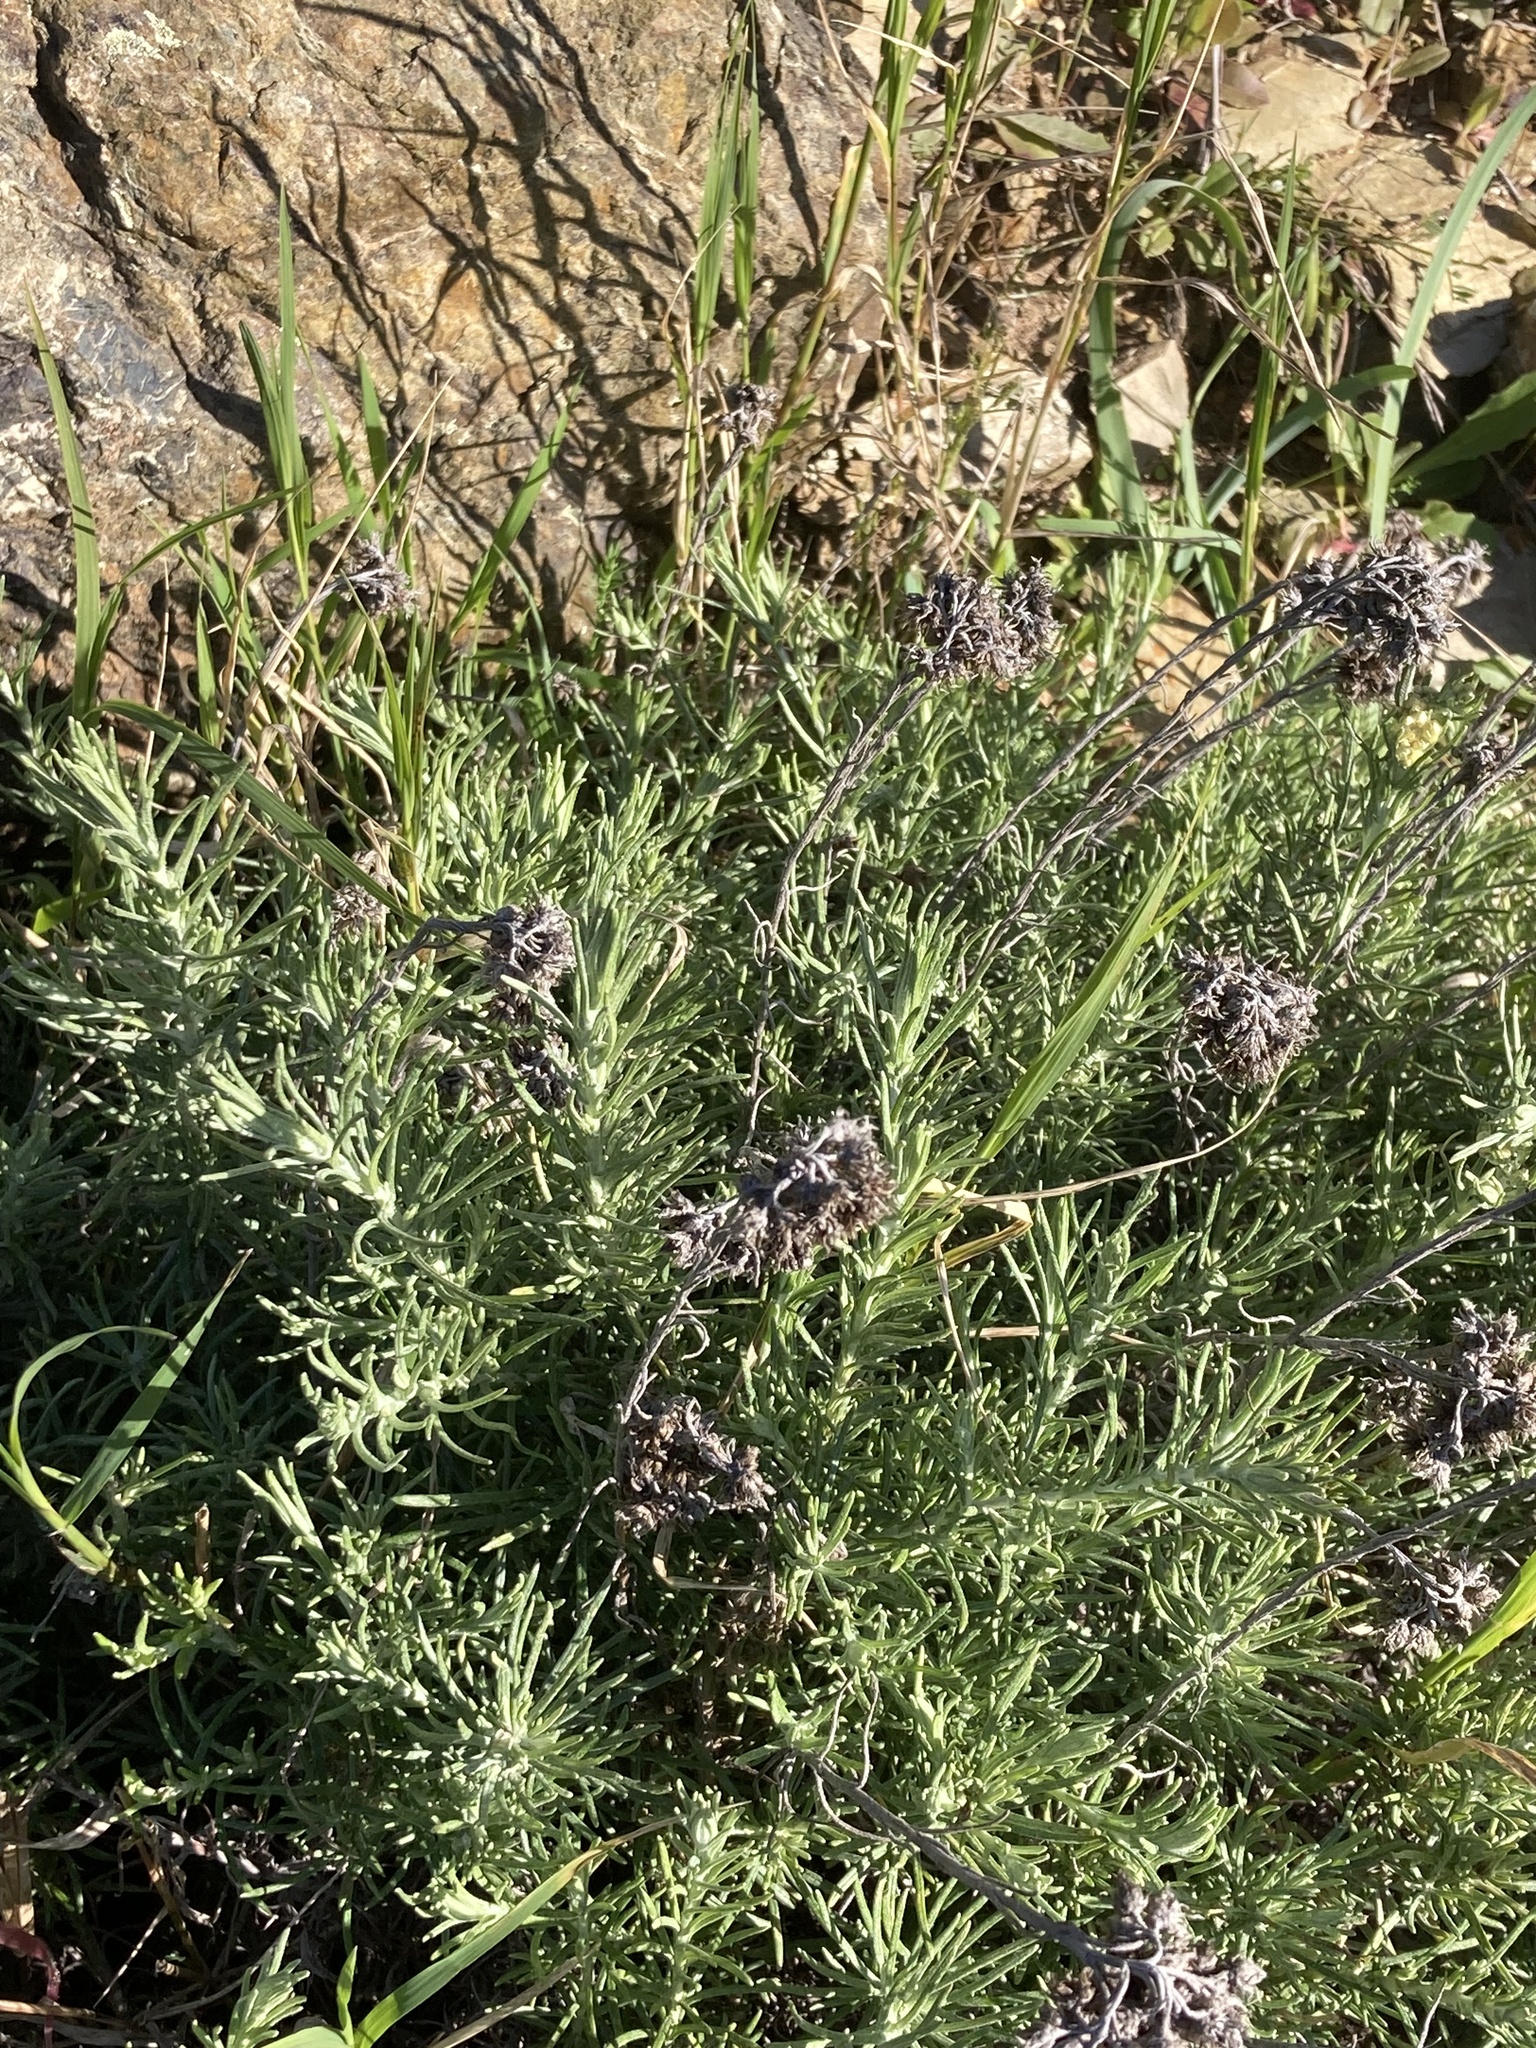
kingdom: Plantae
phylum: Tracheophyta
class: Magnoliopsida
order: Asterales
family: Asteraceae
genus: Helichrysum
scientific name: Helichrysum stoechas
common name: Goldilocks
